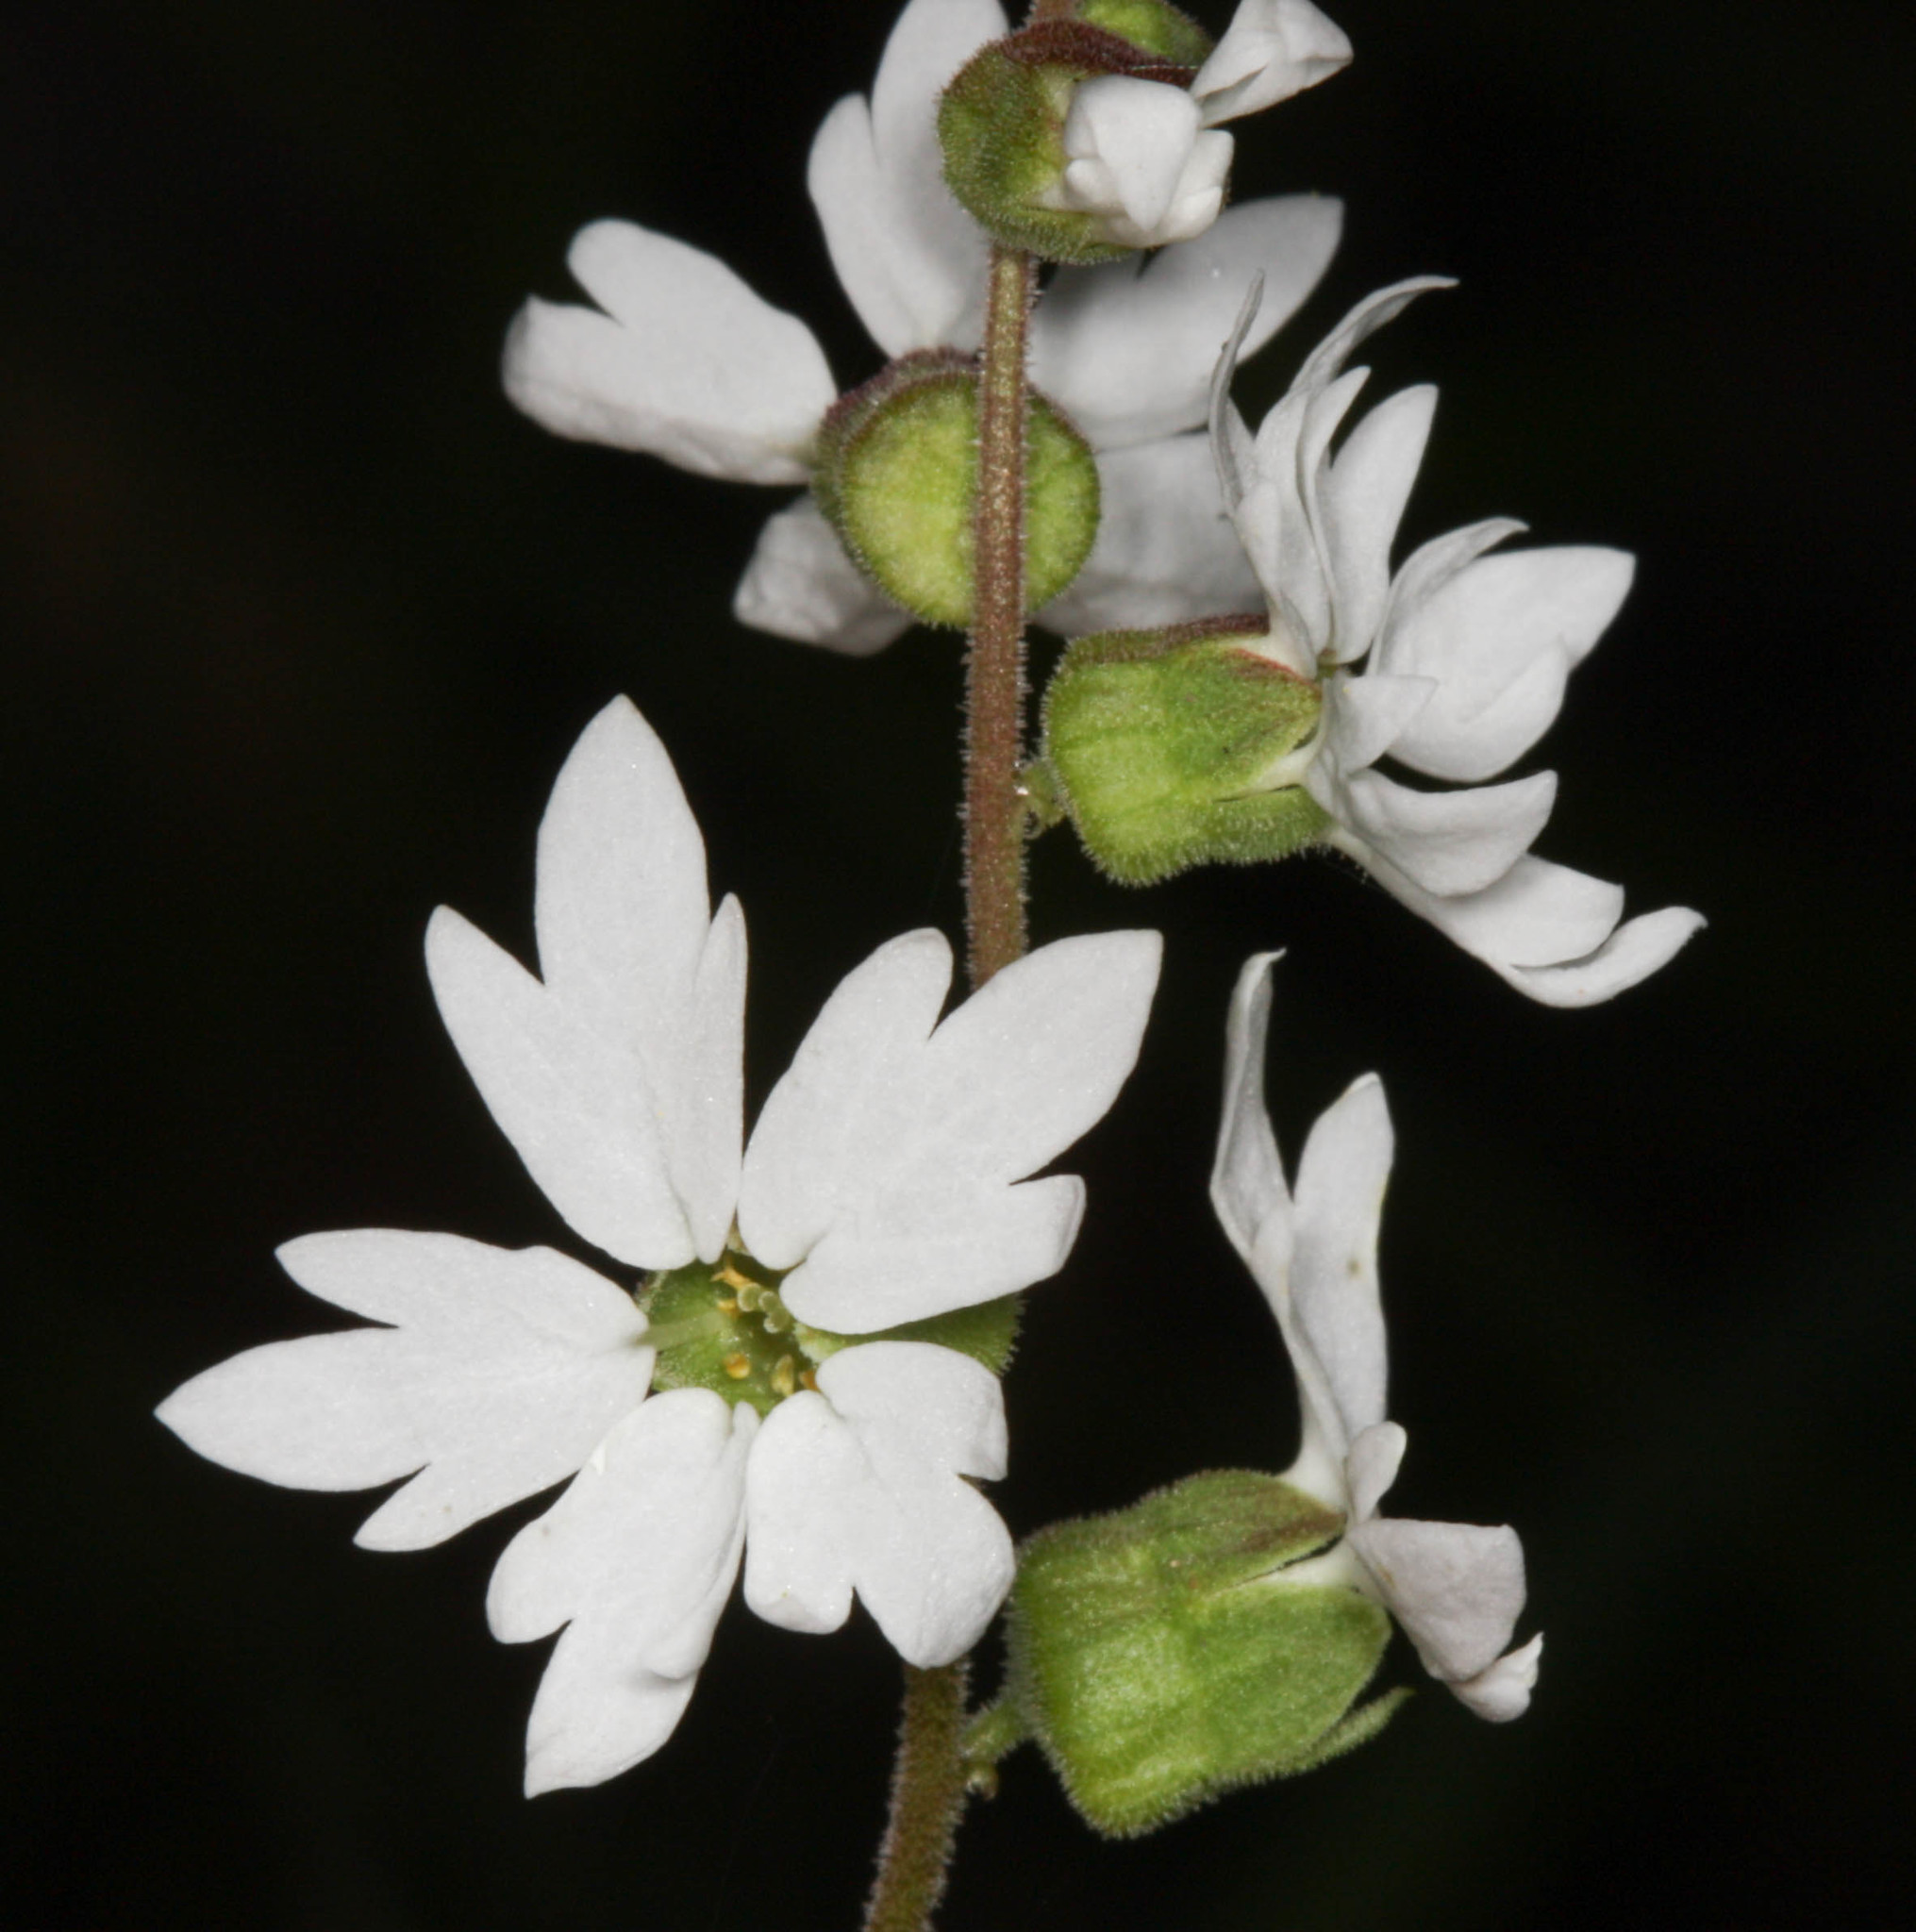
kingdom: Plantae
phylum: Tracheophyta
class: Magnoliopsida
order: Saxifragales
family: Saxifragaceae
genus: Lithophragma
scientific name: Lithophragma heterophyllum
